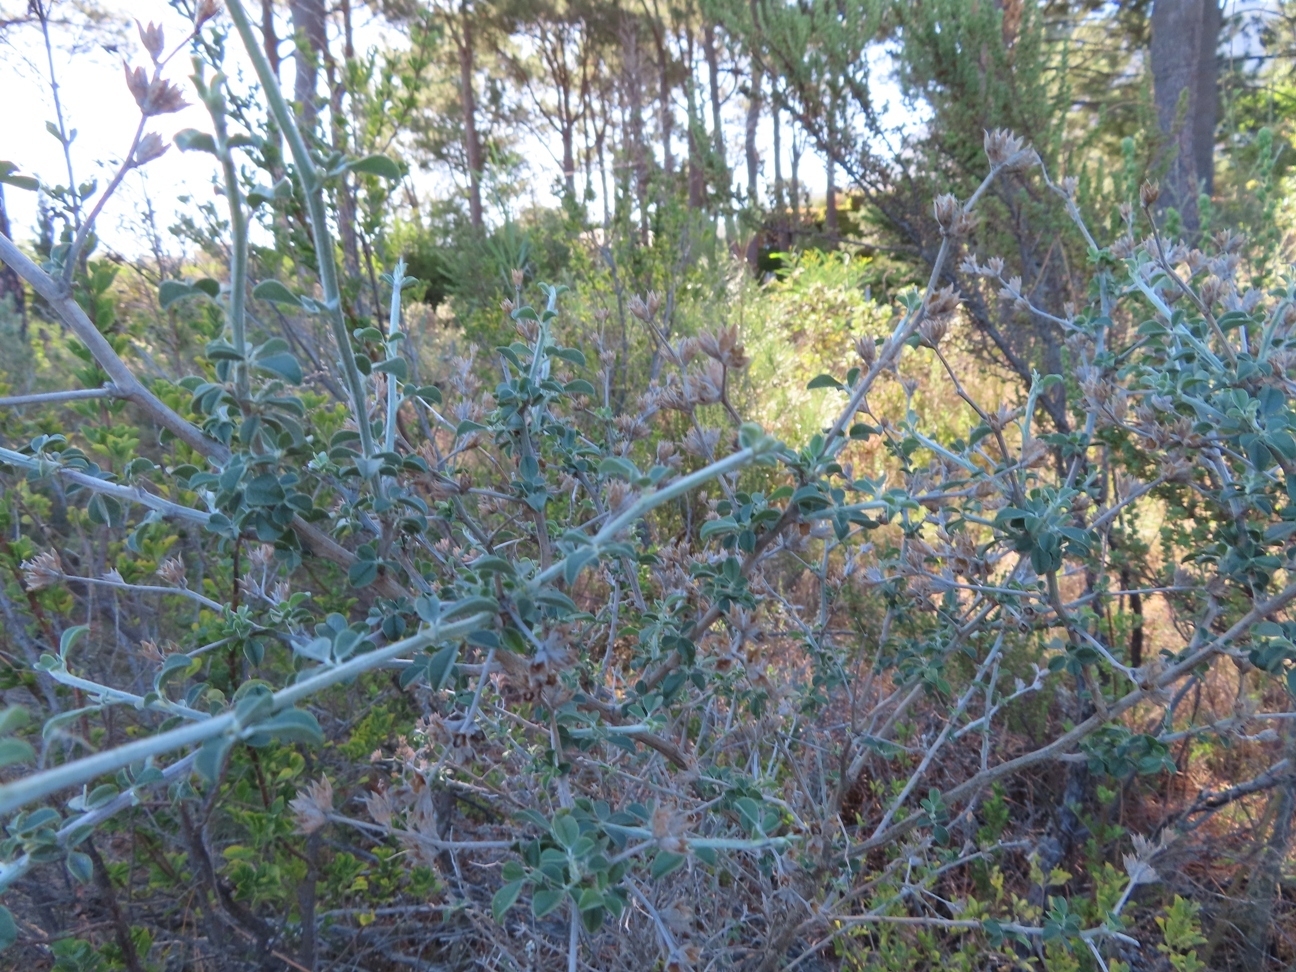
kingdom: Plantae
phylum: Tracheophyta
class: Magnoliopsida
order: Fabales
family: Fabaceae
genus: Psoralea
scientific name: Psoralea hirta
